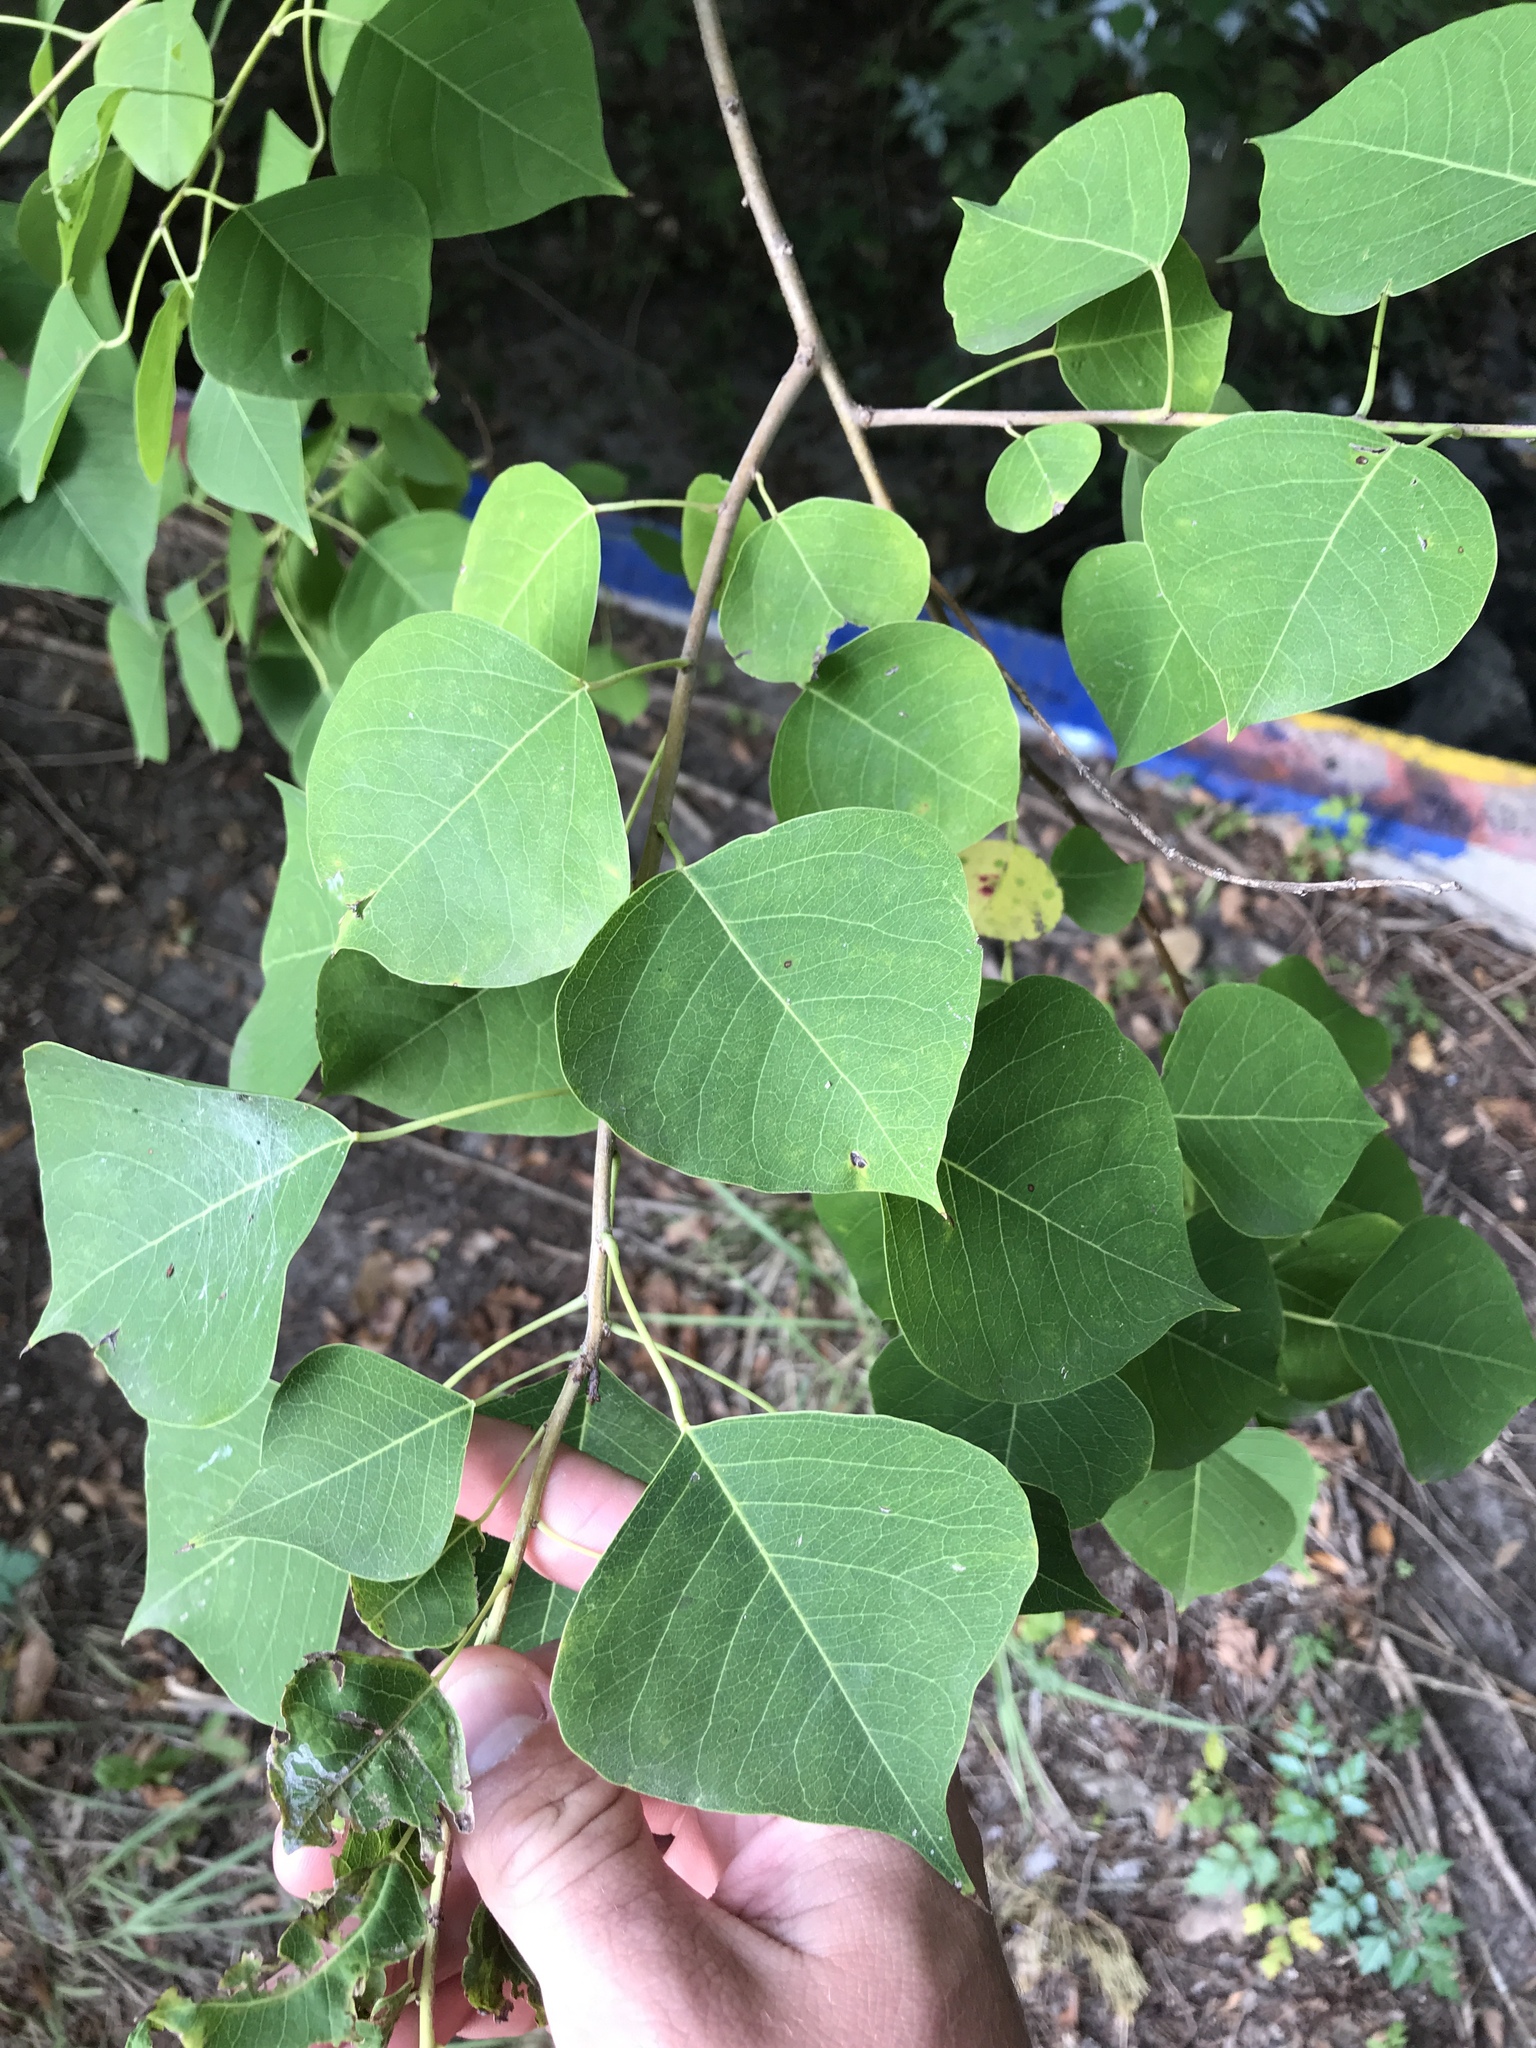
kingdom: Plantae
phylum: Tracheophyta
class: Magnoliopsida
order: Malpighiales
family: Euphorbiaceae
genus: Triadica
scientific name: Triadica sebifera
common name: Chinese tallow
